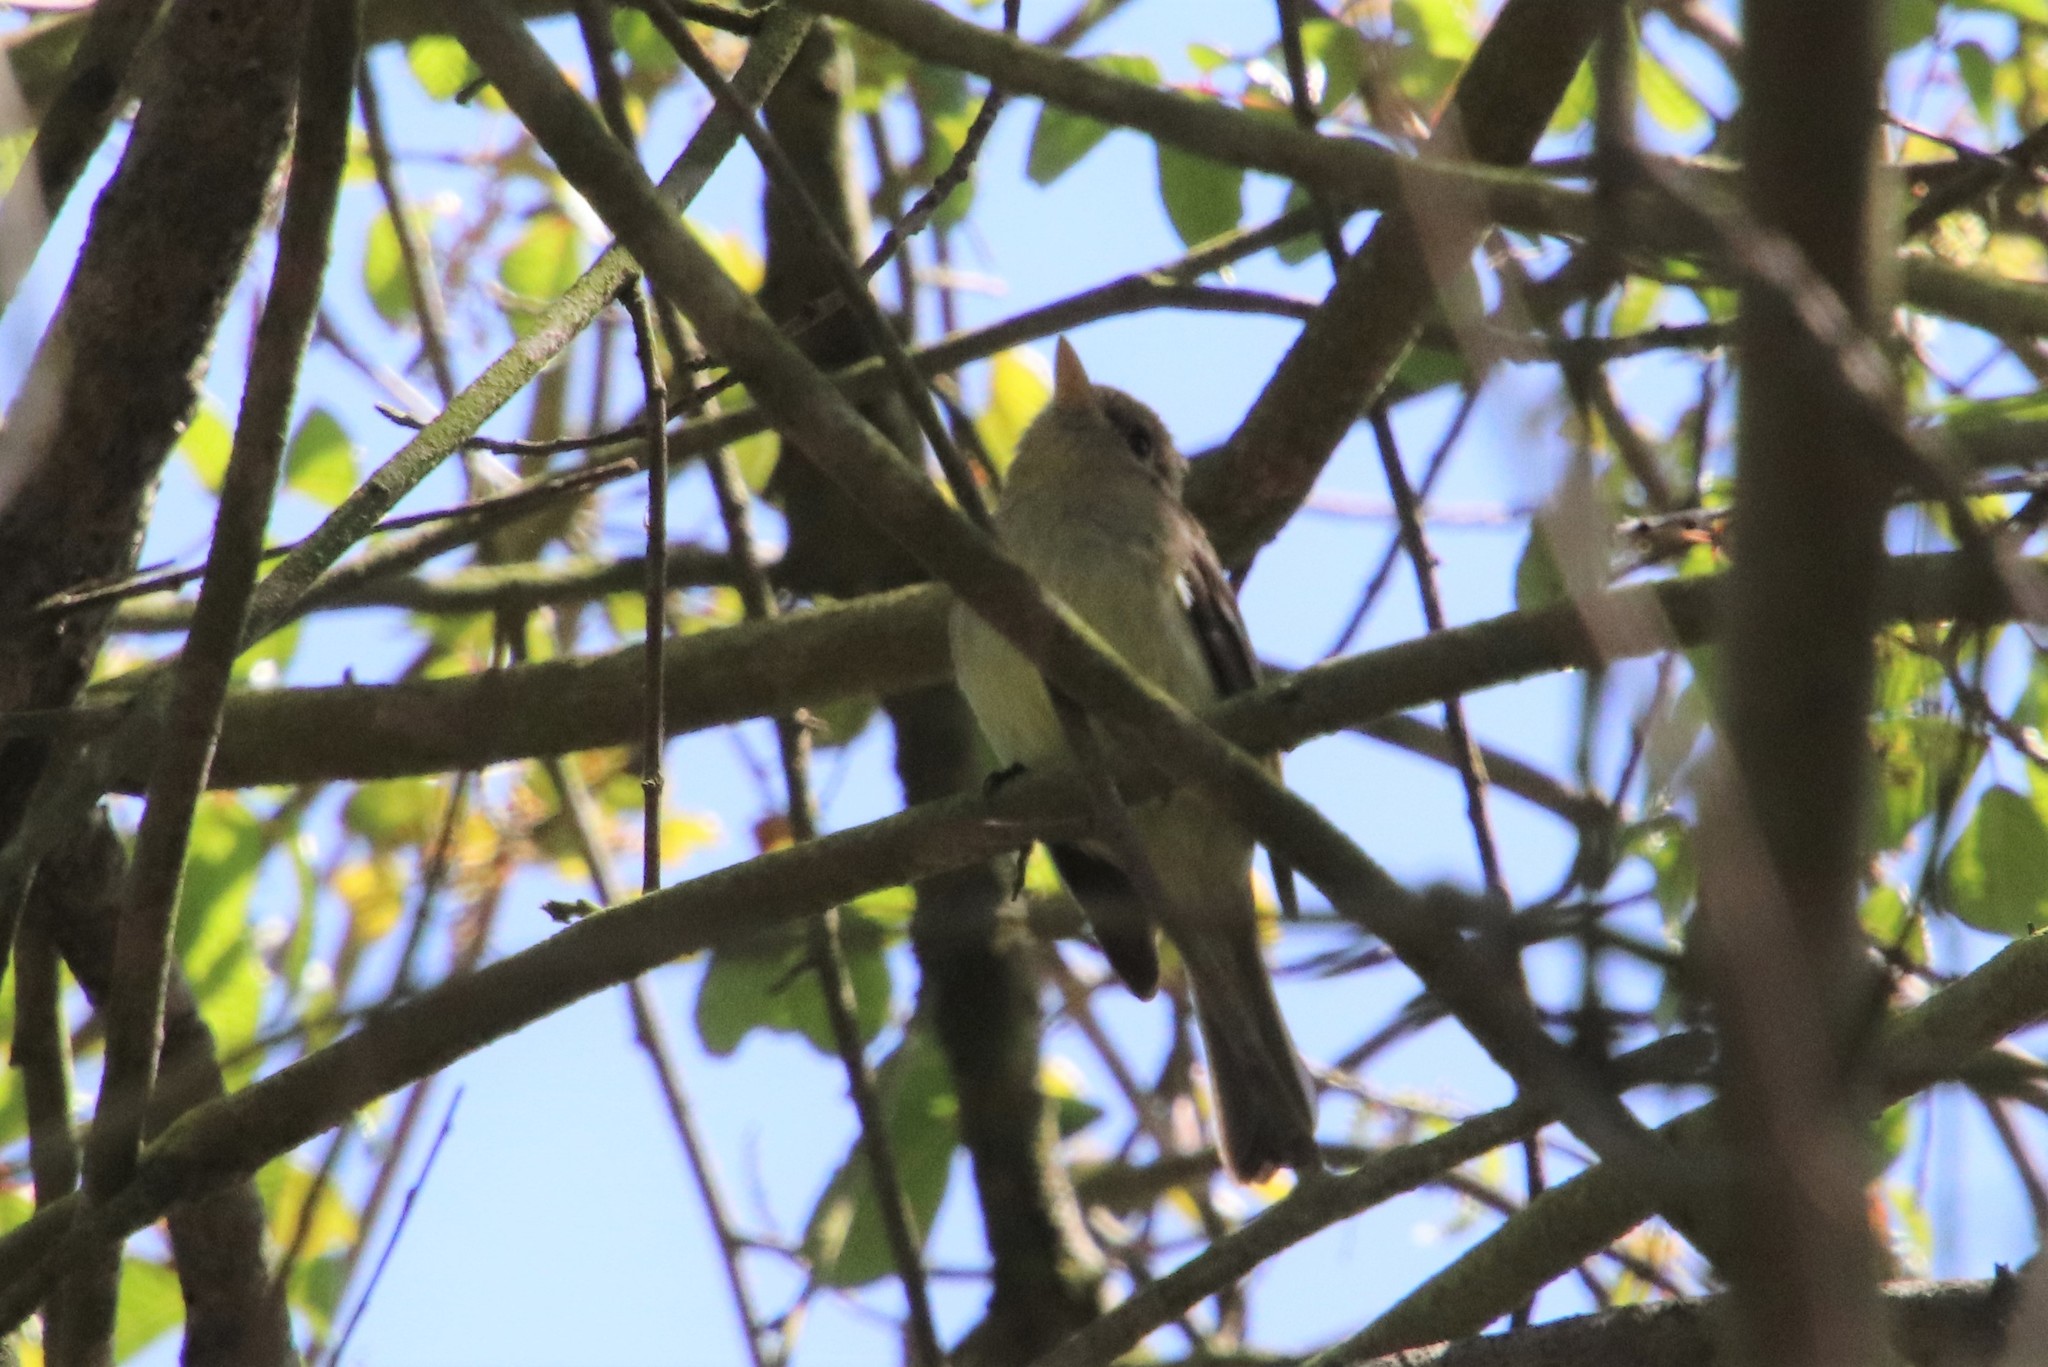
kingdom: Animalia
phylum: Chordata
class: Aves
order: Passeriformes
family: Tyrannidae
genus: Empidonax
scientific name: Empidonax difficilis
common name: Pacific-slope flycatcher
